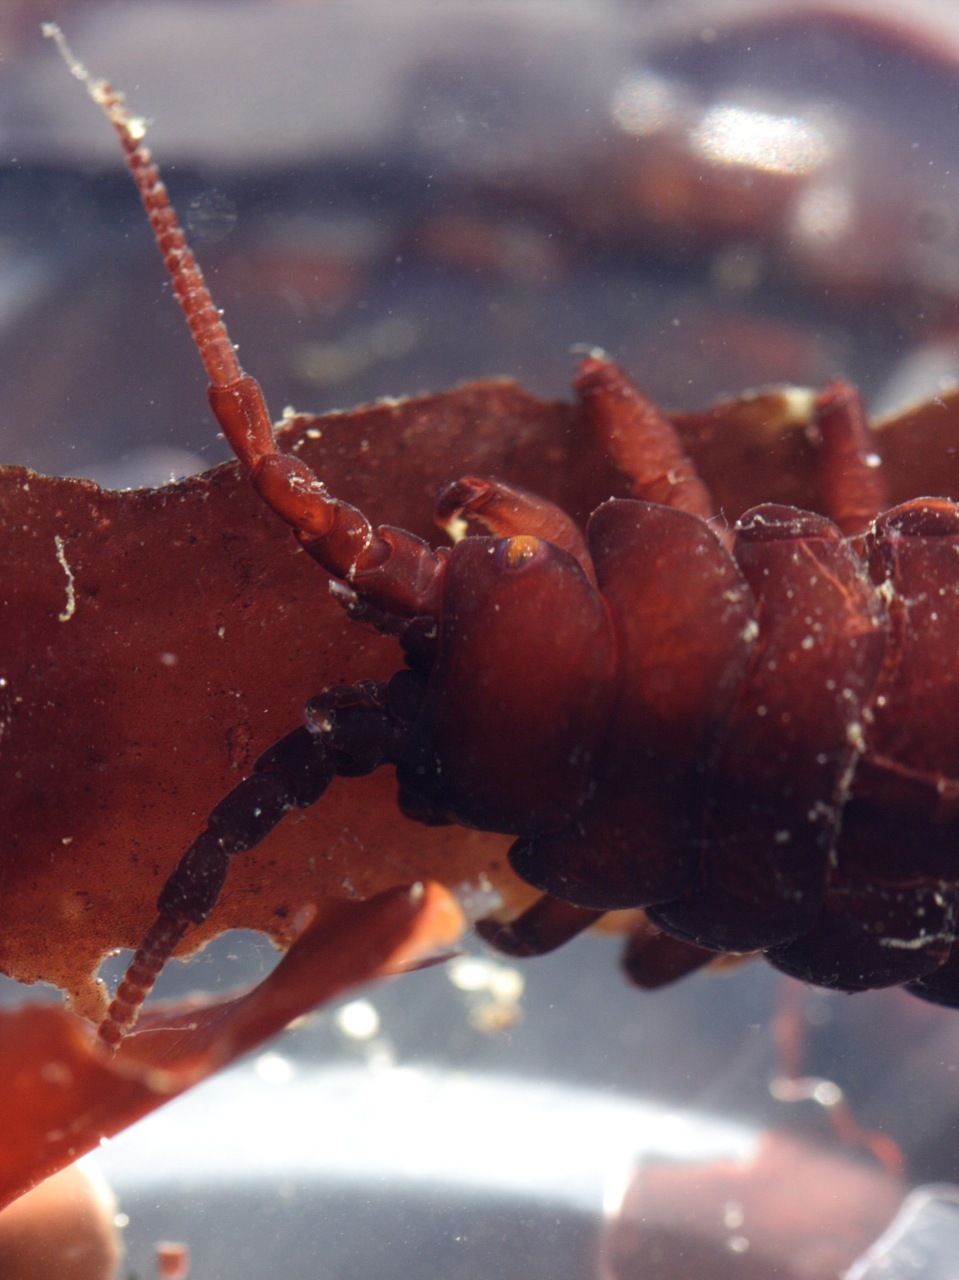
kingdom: Animalia
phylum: Arthropoda
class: Malacostraca
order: Isopoda
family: Idoteidae
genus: Pentidotea
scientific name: Pentidotea schmitti
